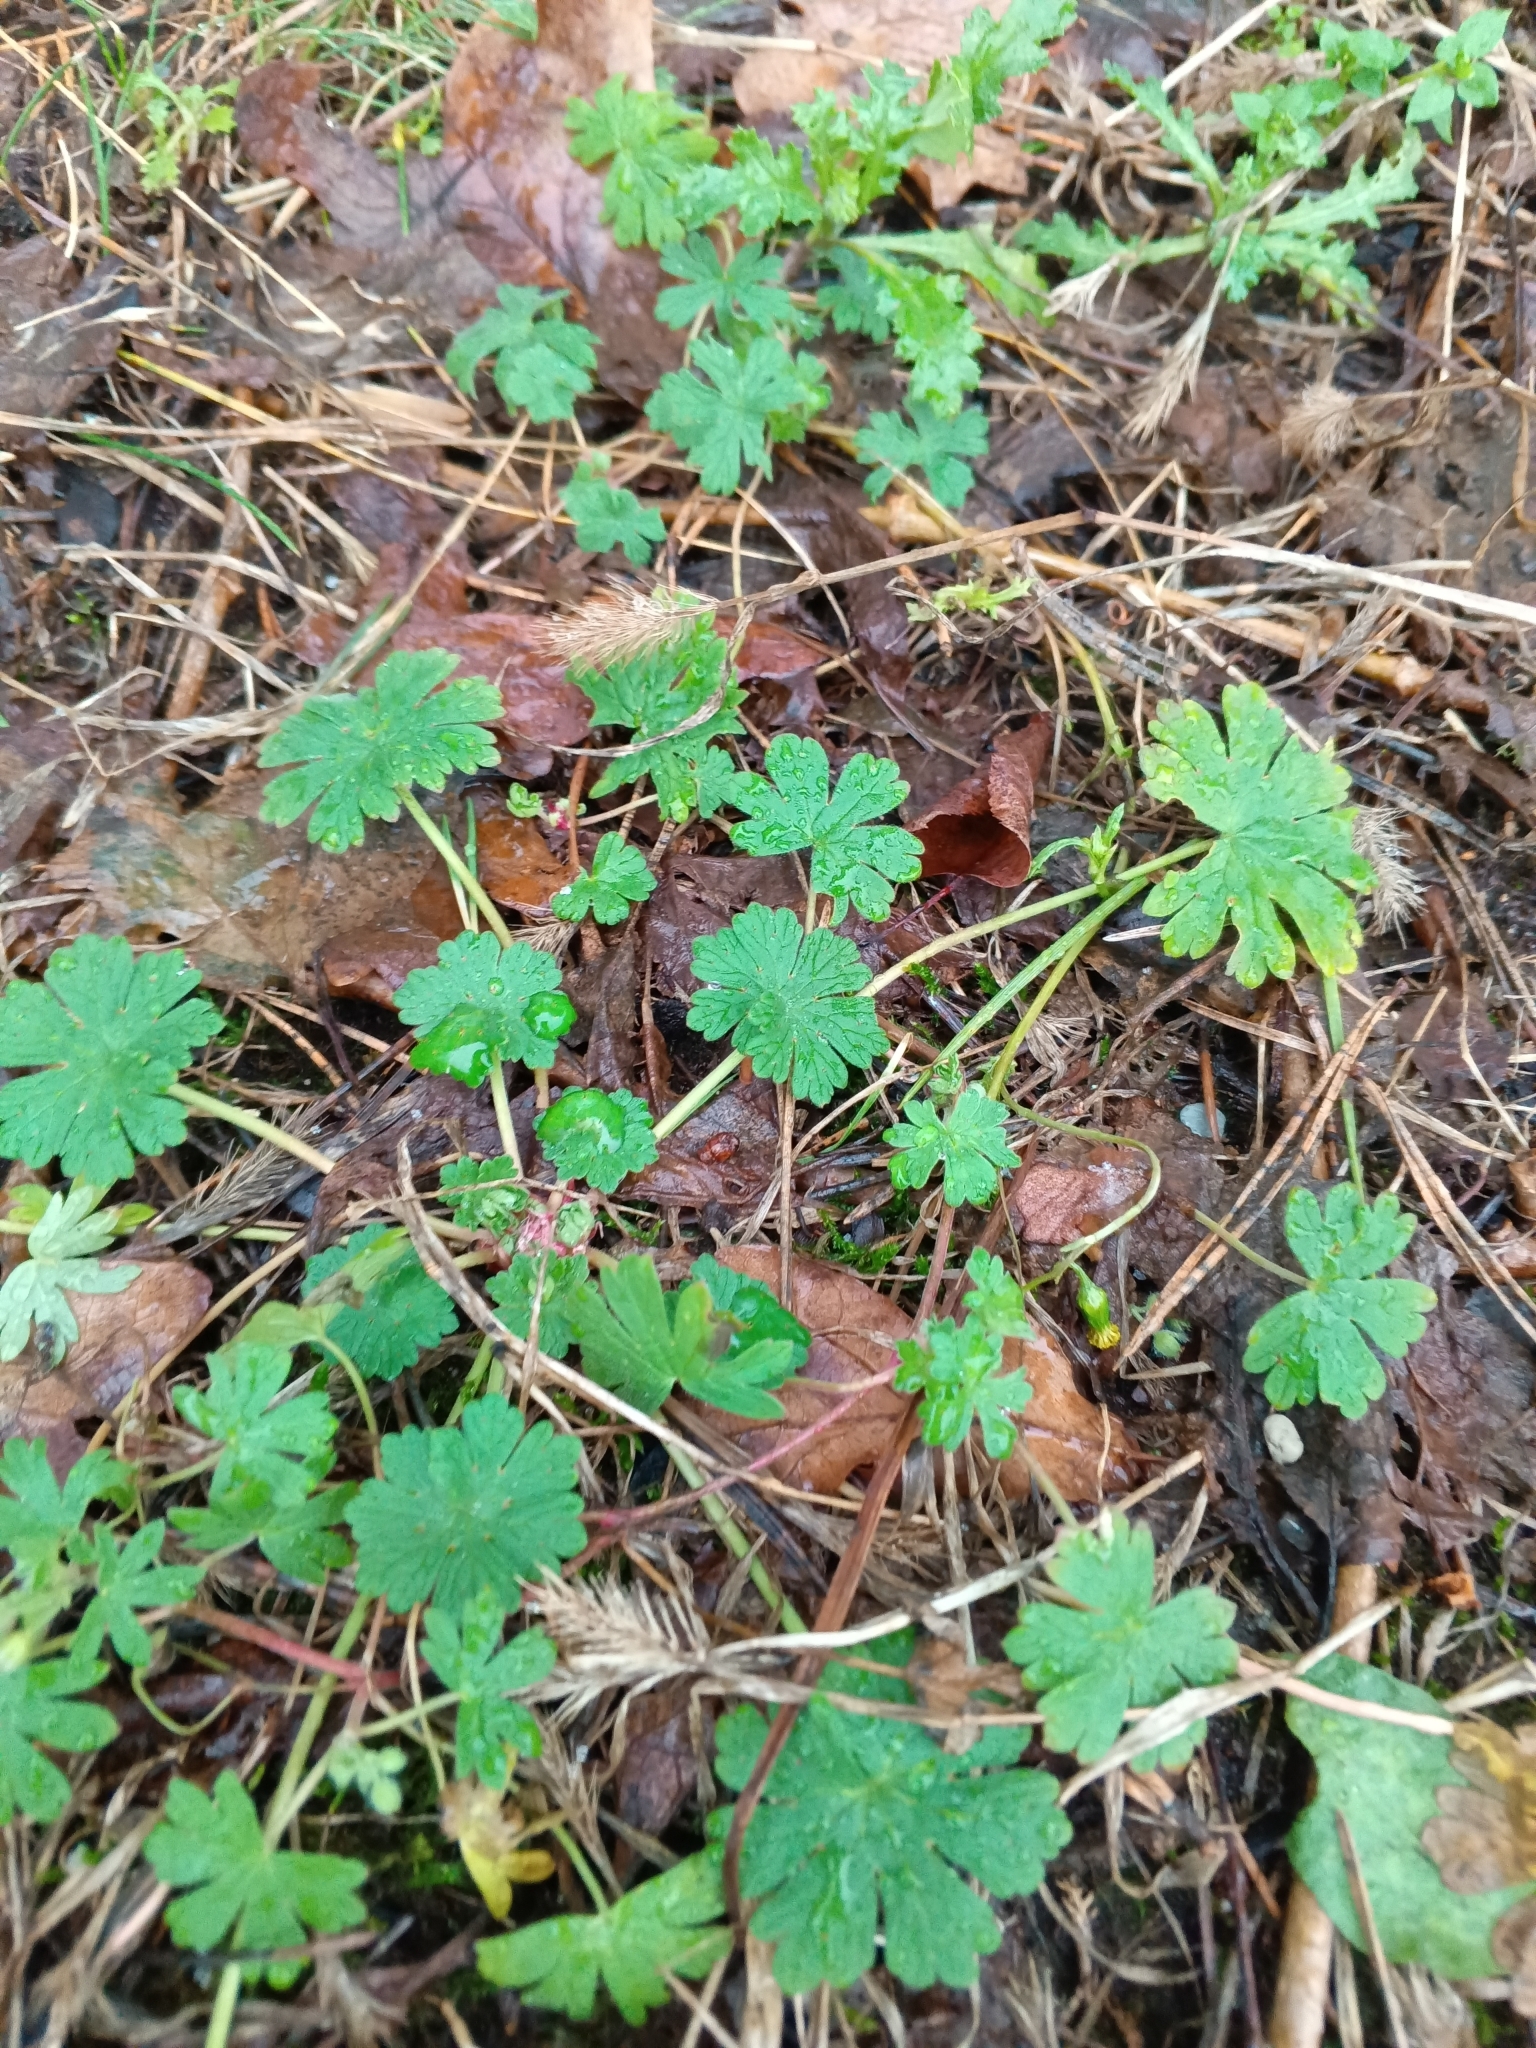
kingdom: Plantae
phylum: Tracheophyta
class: Magnoliopsida
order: Geraniales
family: Geraniaceae
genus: Geranium
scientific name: Geranium pusillum
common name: Small geranium
